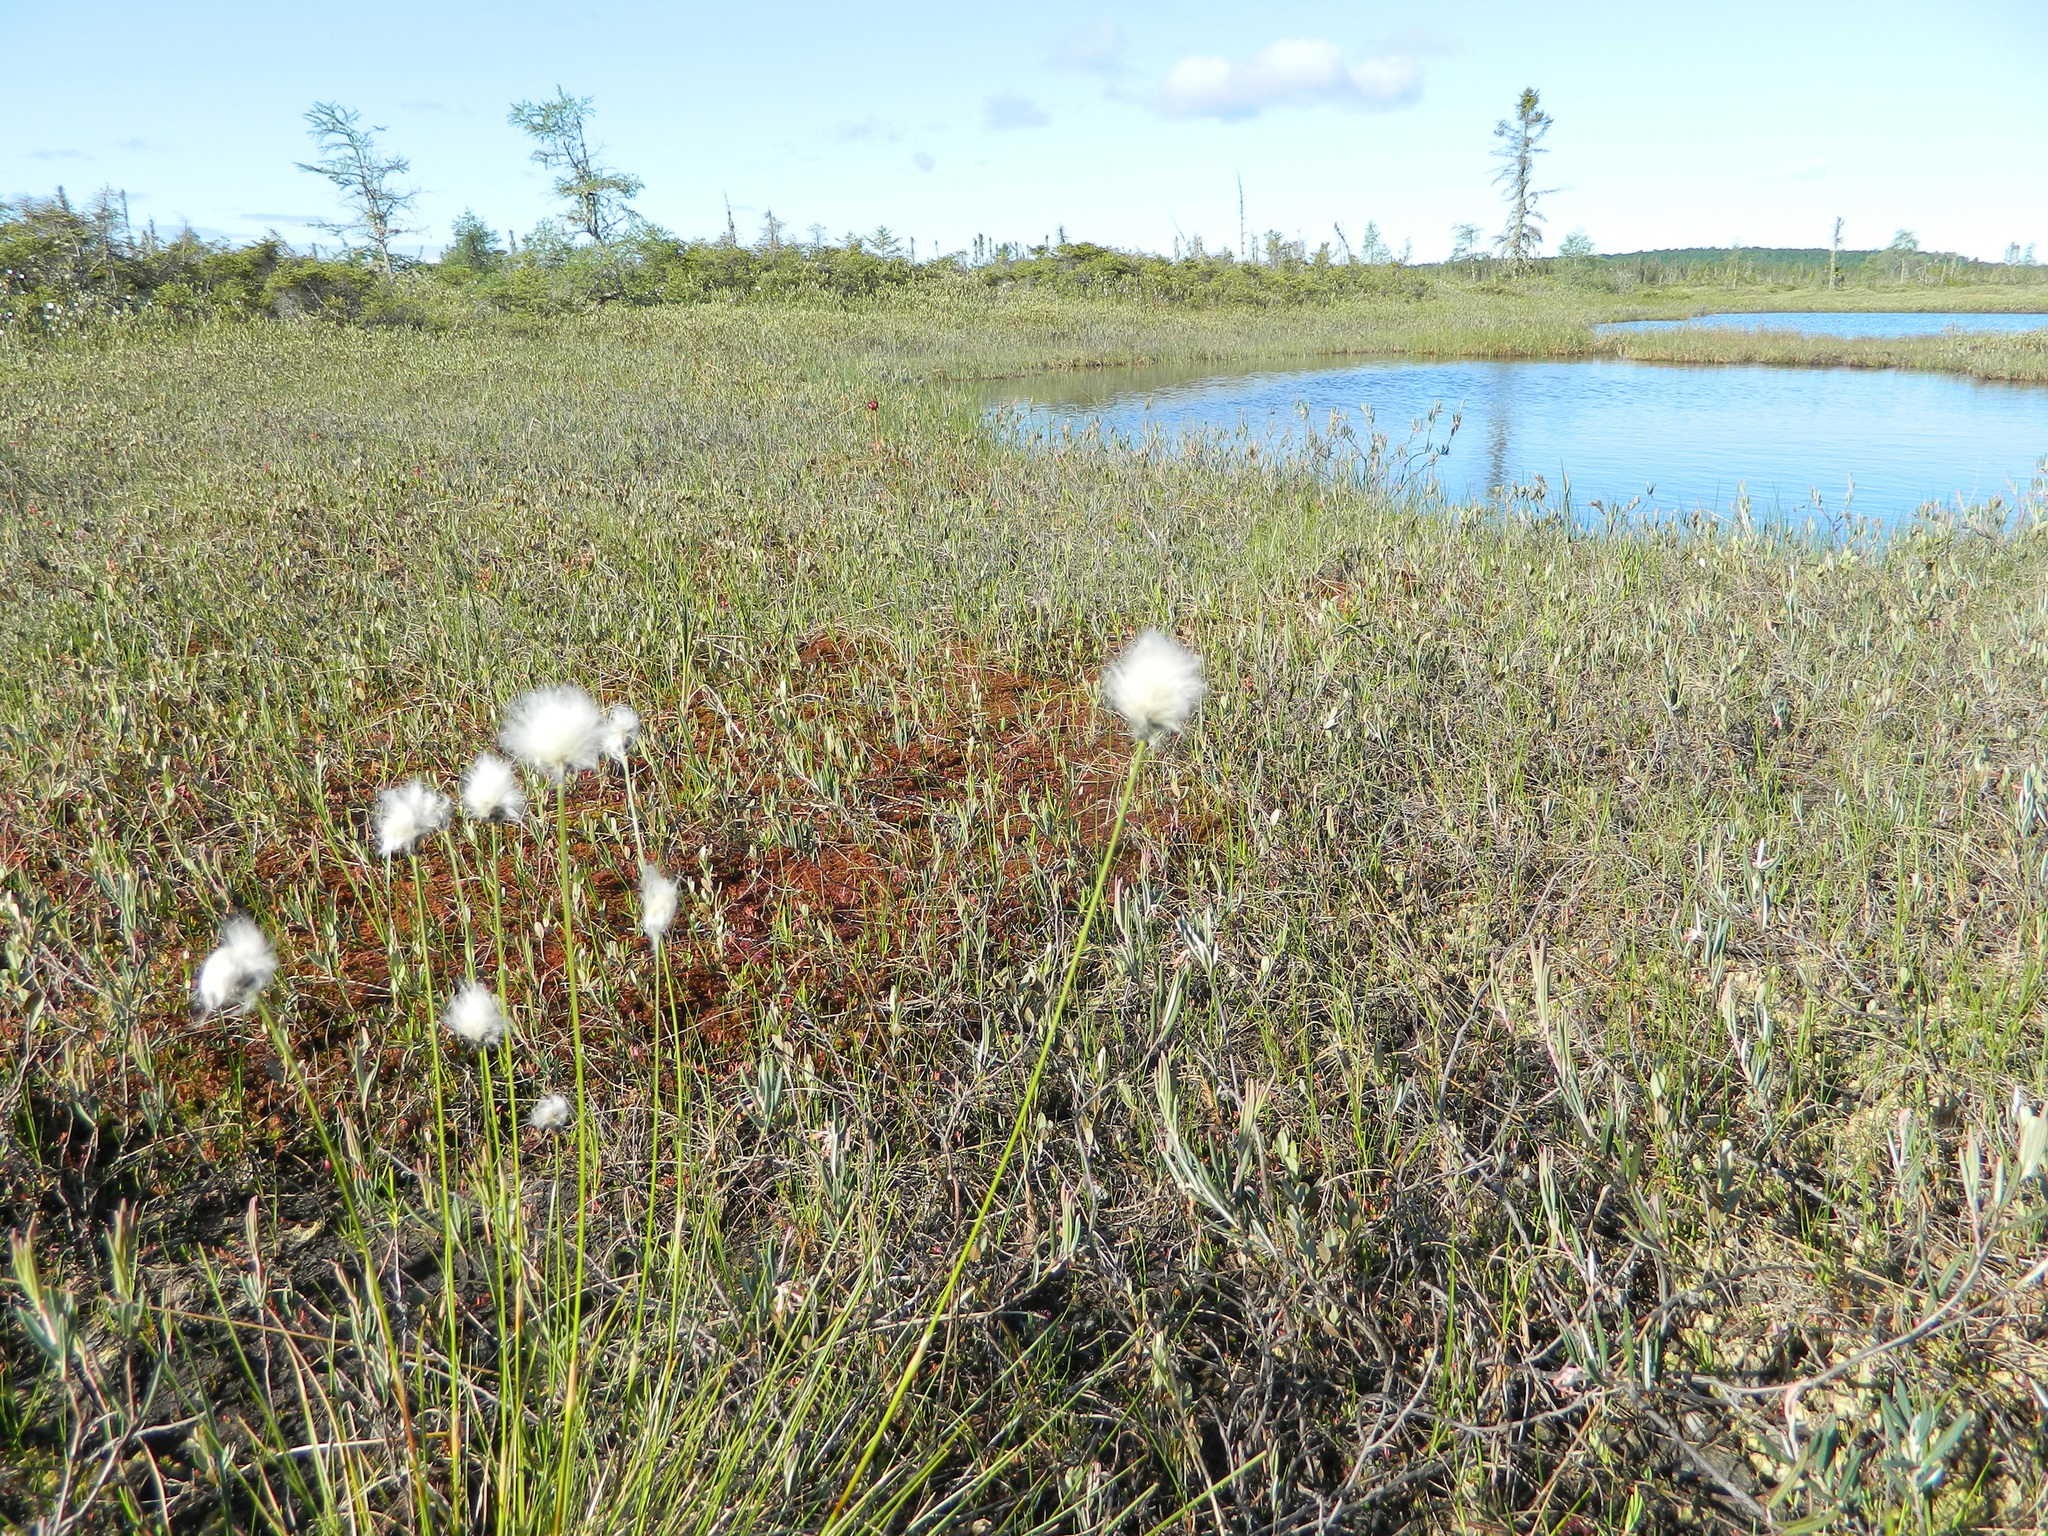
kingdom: Plantae
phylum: Tracheophyta
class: Liliopsida
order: Poales
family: Cyperaceae
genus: Eriophorum
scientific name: Eriophorum vaginatum
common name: Hare's-tail cottongrass
